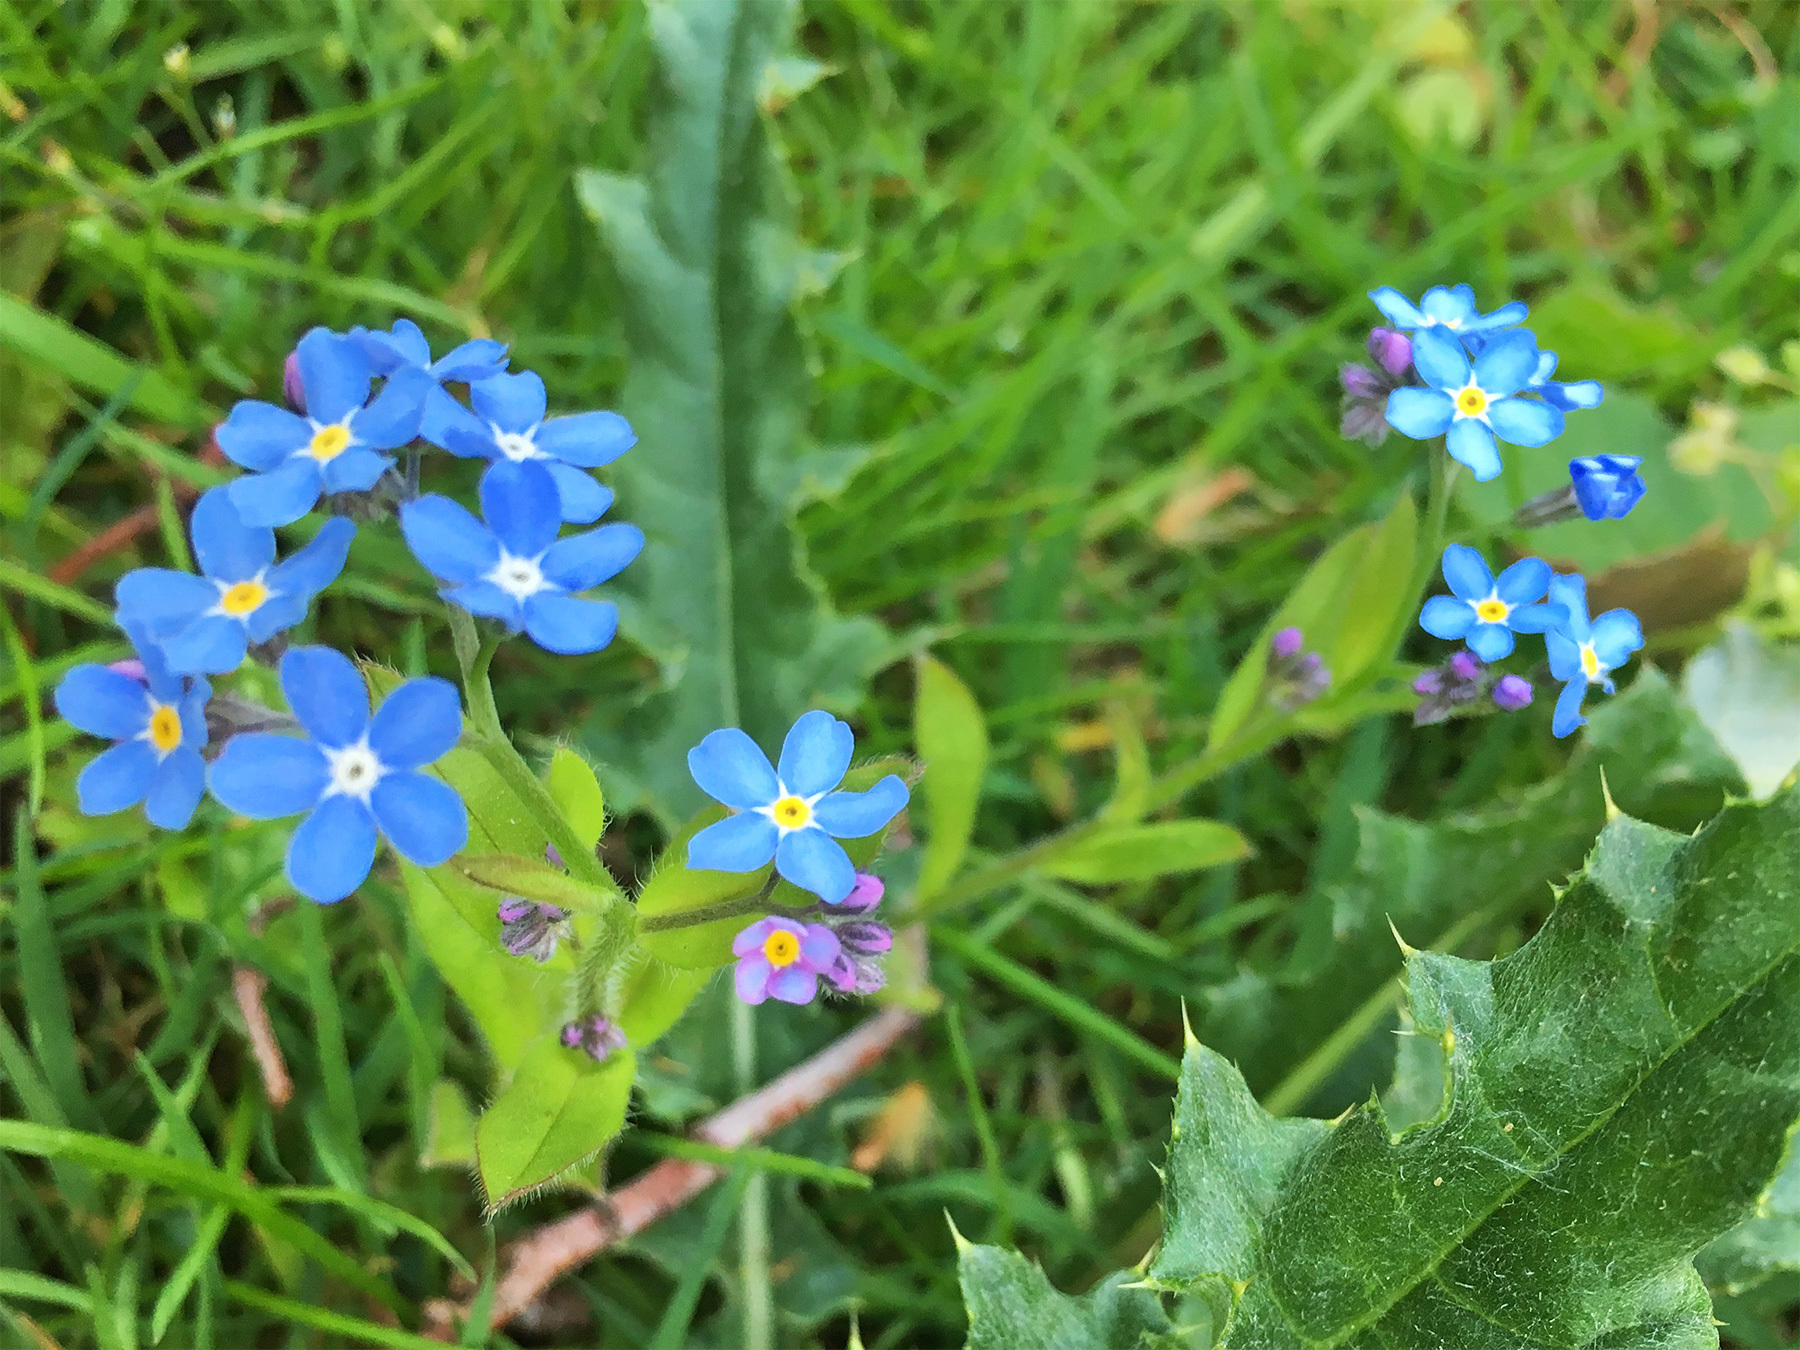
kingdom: Plantae
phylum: Tracheophyta
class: Magnoliopsida
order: Boraginales
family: Boraginaceae
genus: Myosotis
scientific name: Myosotis sylvatica
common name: Wood forget-me-not
